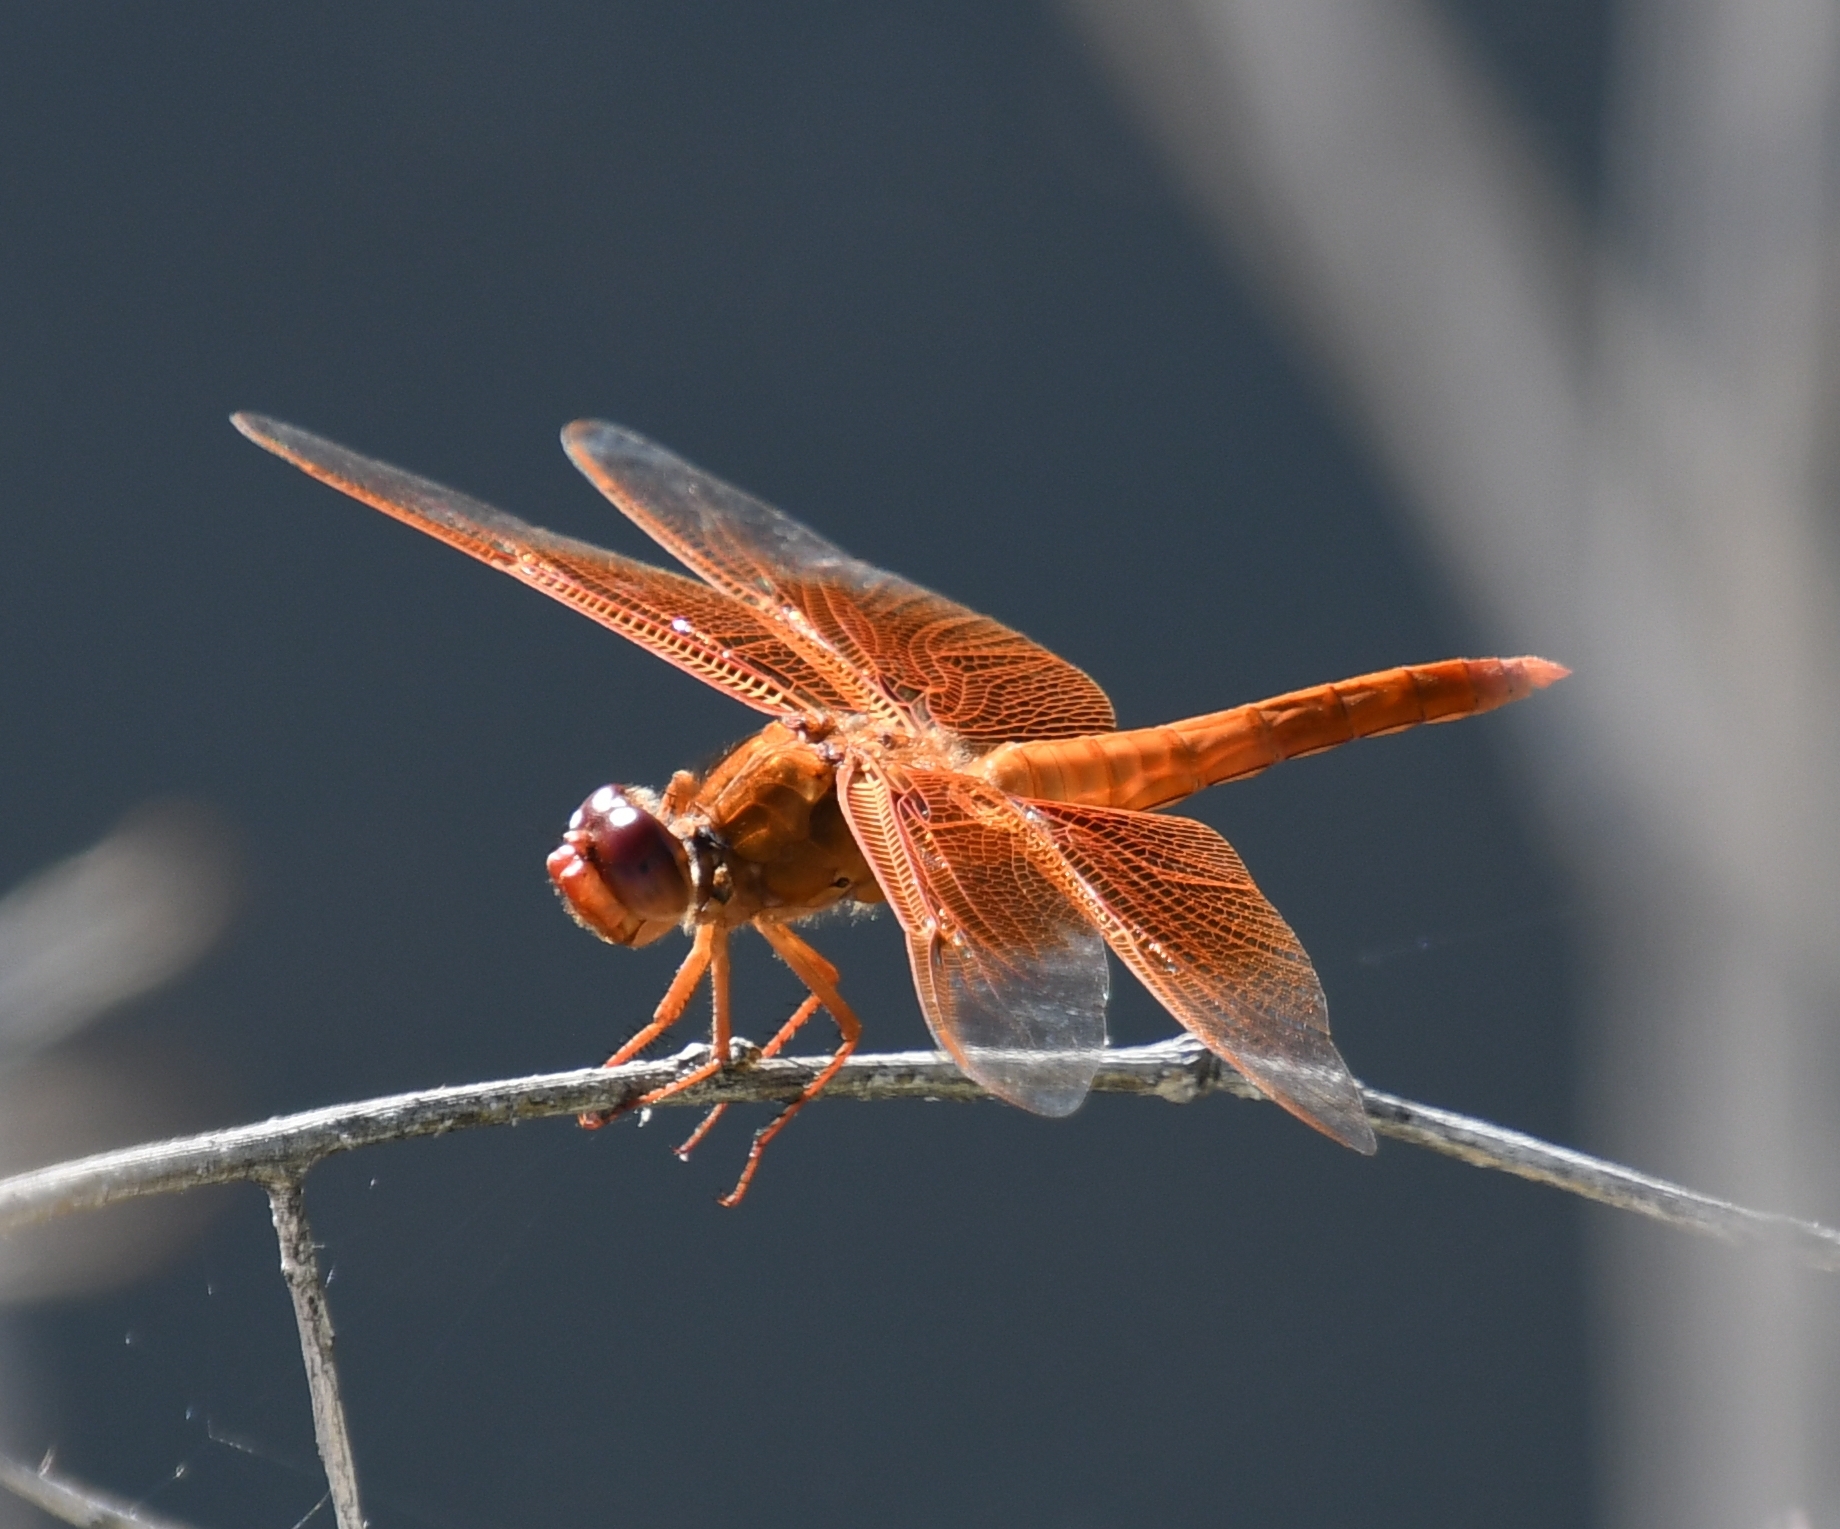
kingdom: Animalia
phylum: Arthropoda
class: Insecta
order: Odonata
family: Libellulidae
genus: Libellula
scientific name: Libellula saturata
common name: Flame skimmer
